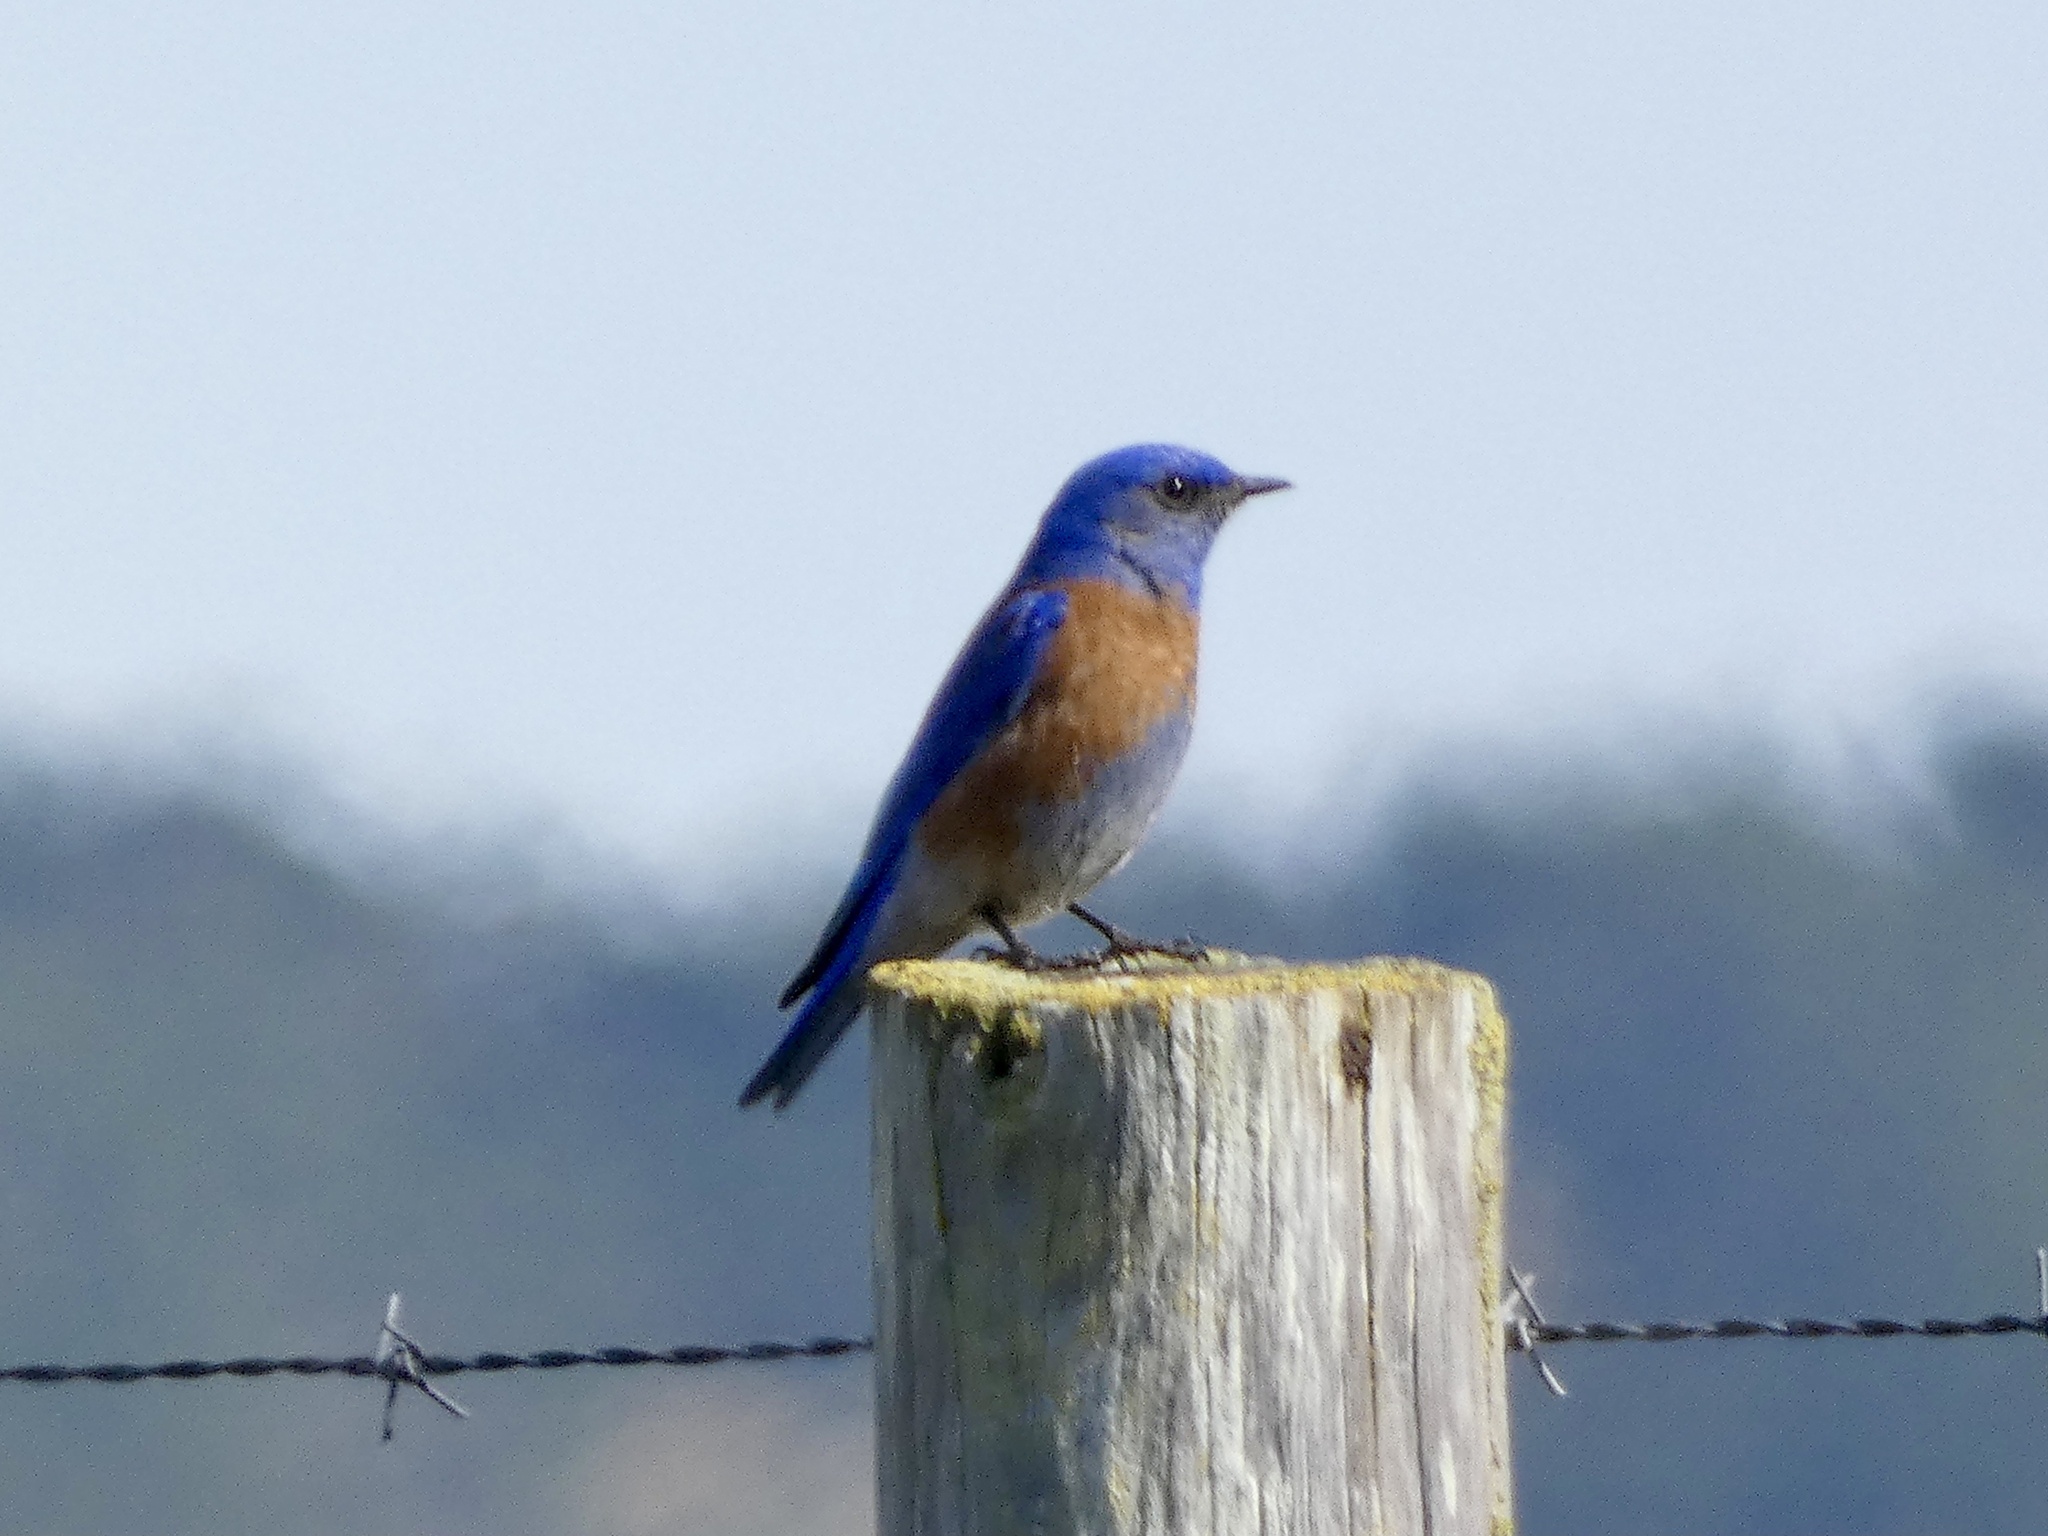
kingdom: Animalia
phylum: Chordata
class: Aves
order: Passeriformes
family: Turdidae
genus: Sialia
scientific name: Sialia mexicana
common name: Western bluebird
